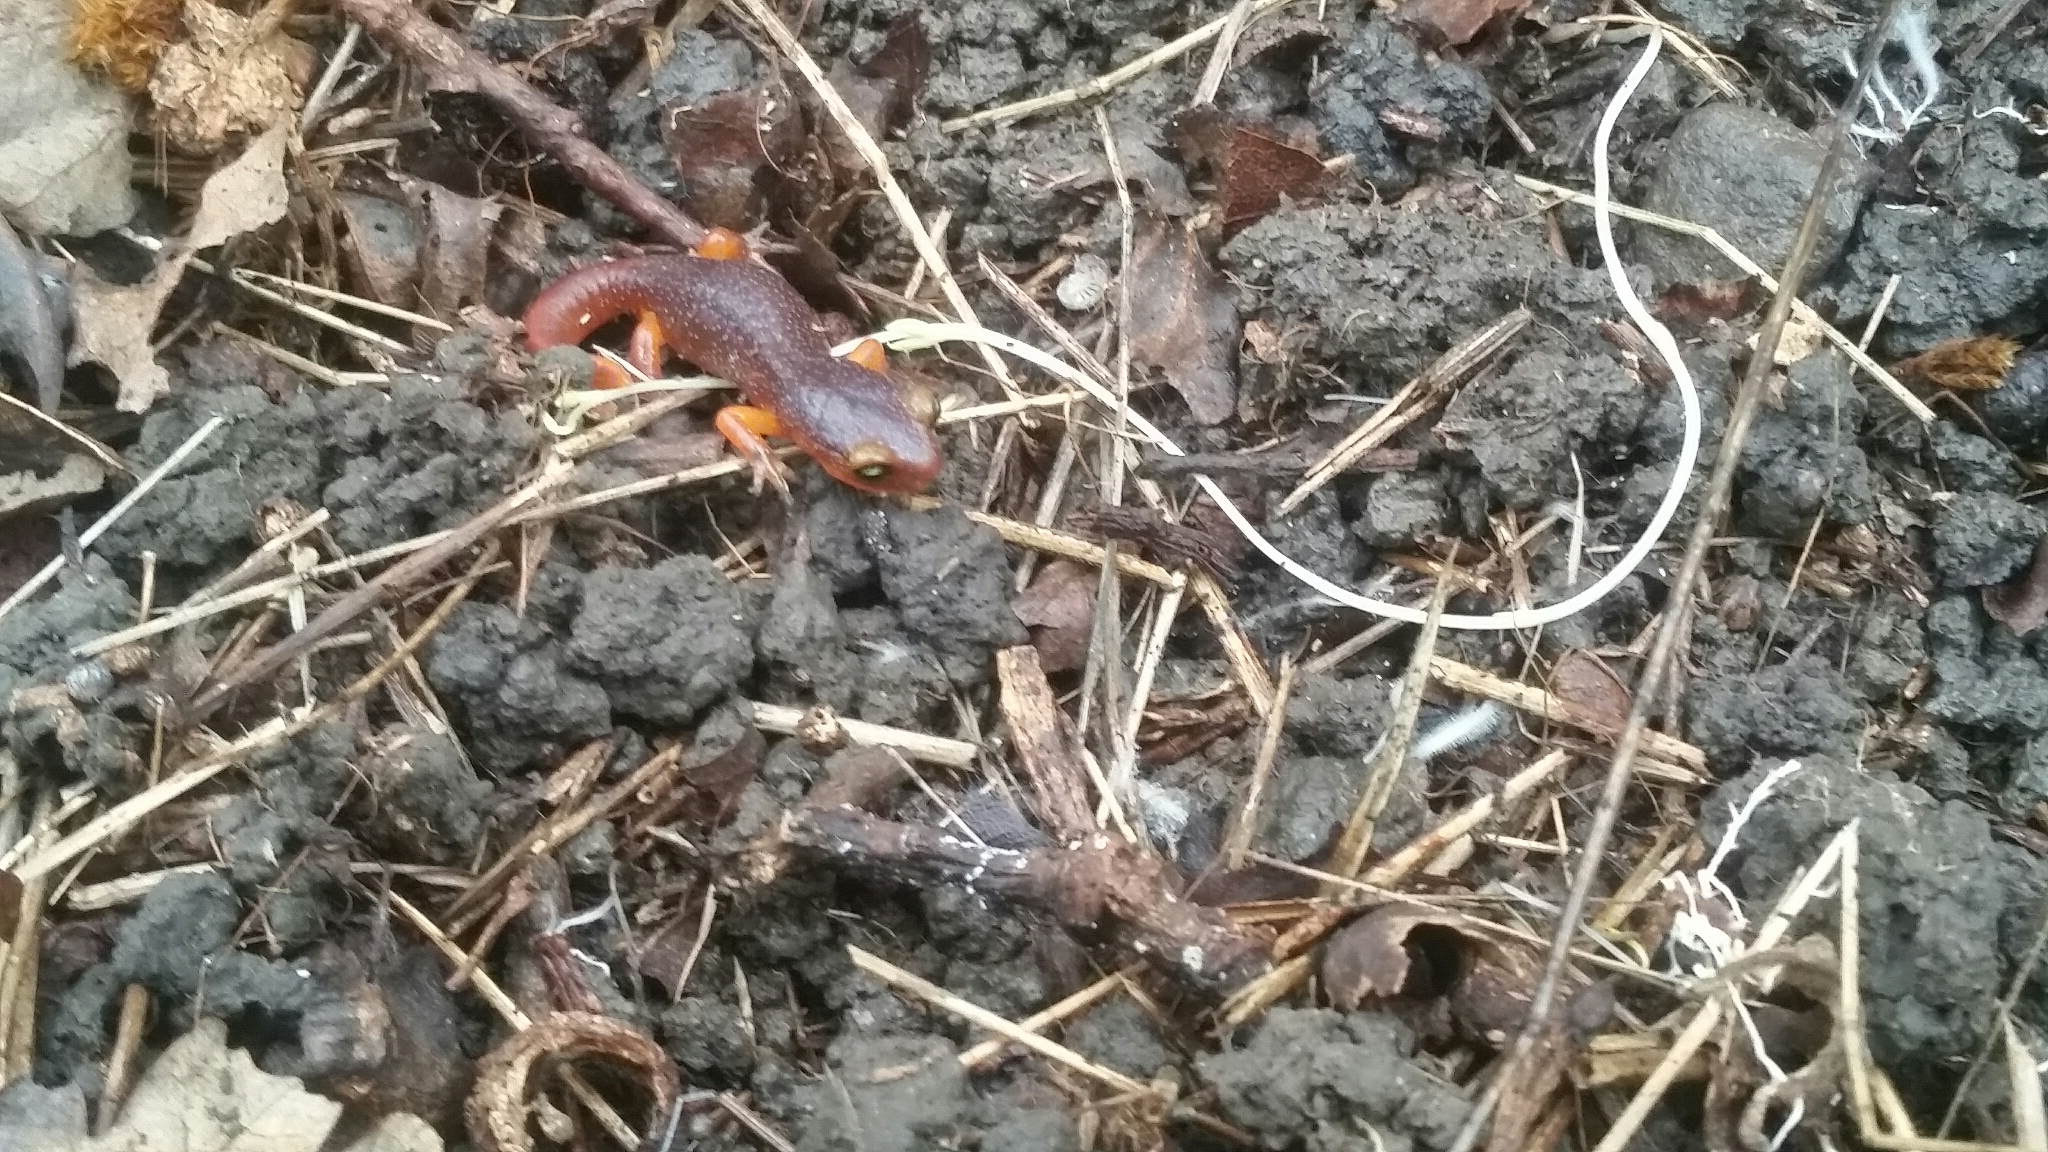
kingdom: Animalia
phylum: Chordata
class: Amphibia
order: Caudata
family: Plethodontidae
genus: Ensatina
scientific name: Ensatina eschscholtzii
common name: Ensatina
